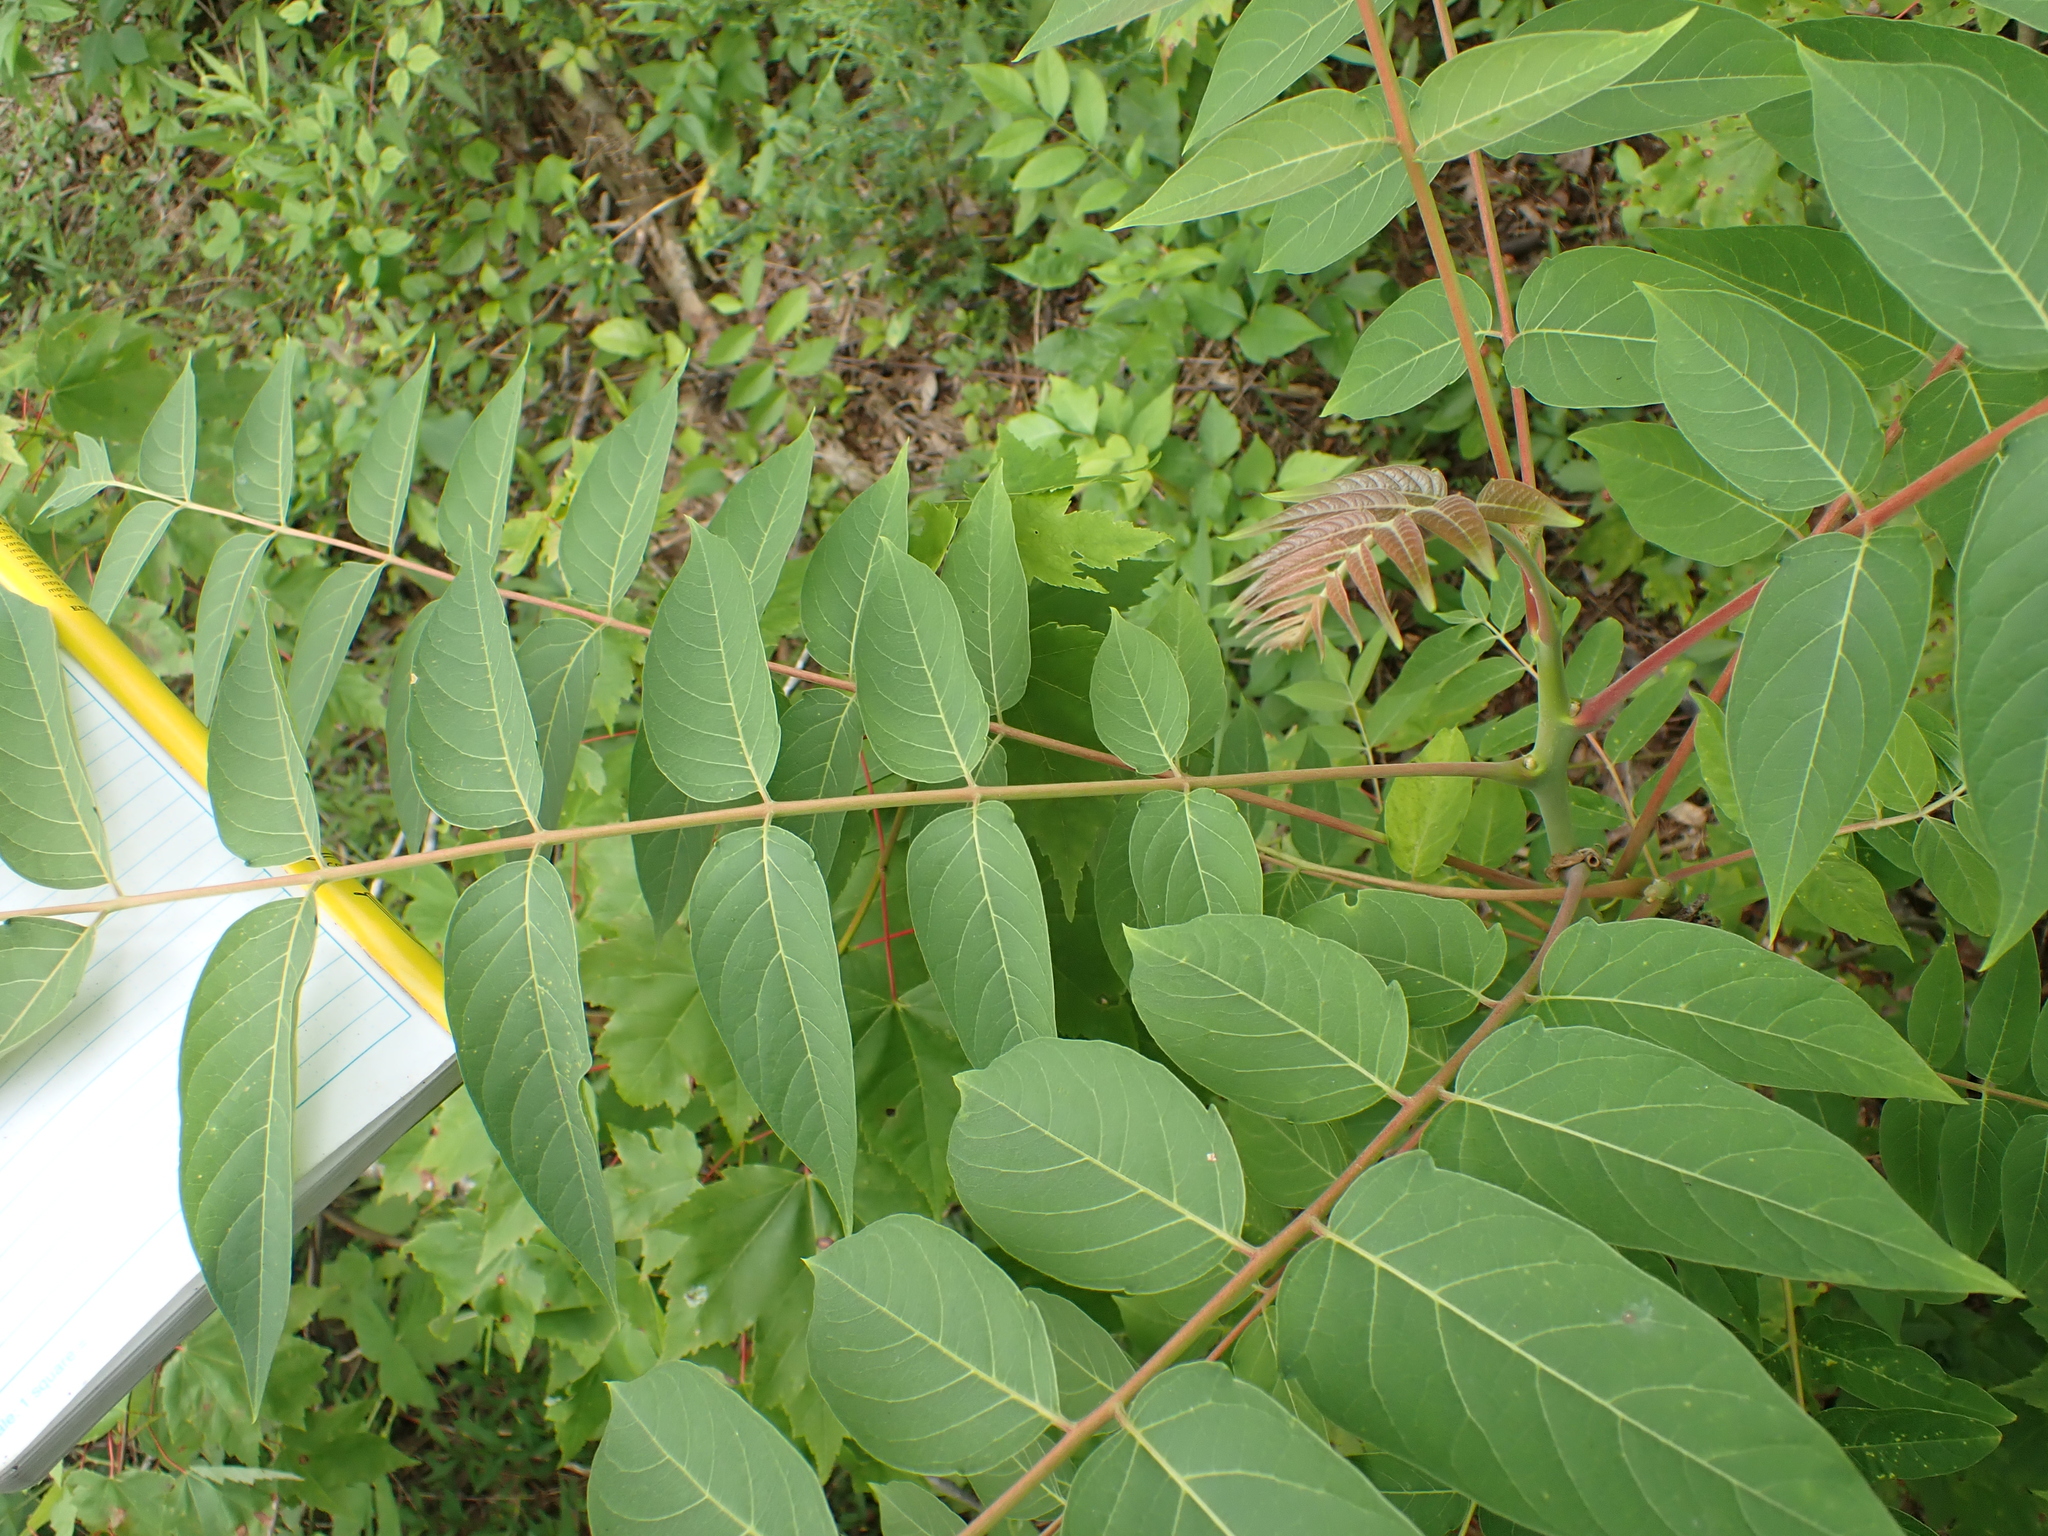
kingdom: Plantae
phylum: Tracheophyta
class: Magnoliopsida
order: Sapindales
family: Simaroubaceae
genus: Ailanthus
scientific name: Ailanthus altissima
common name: Tree-of-heaven
